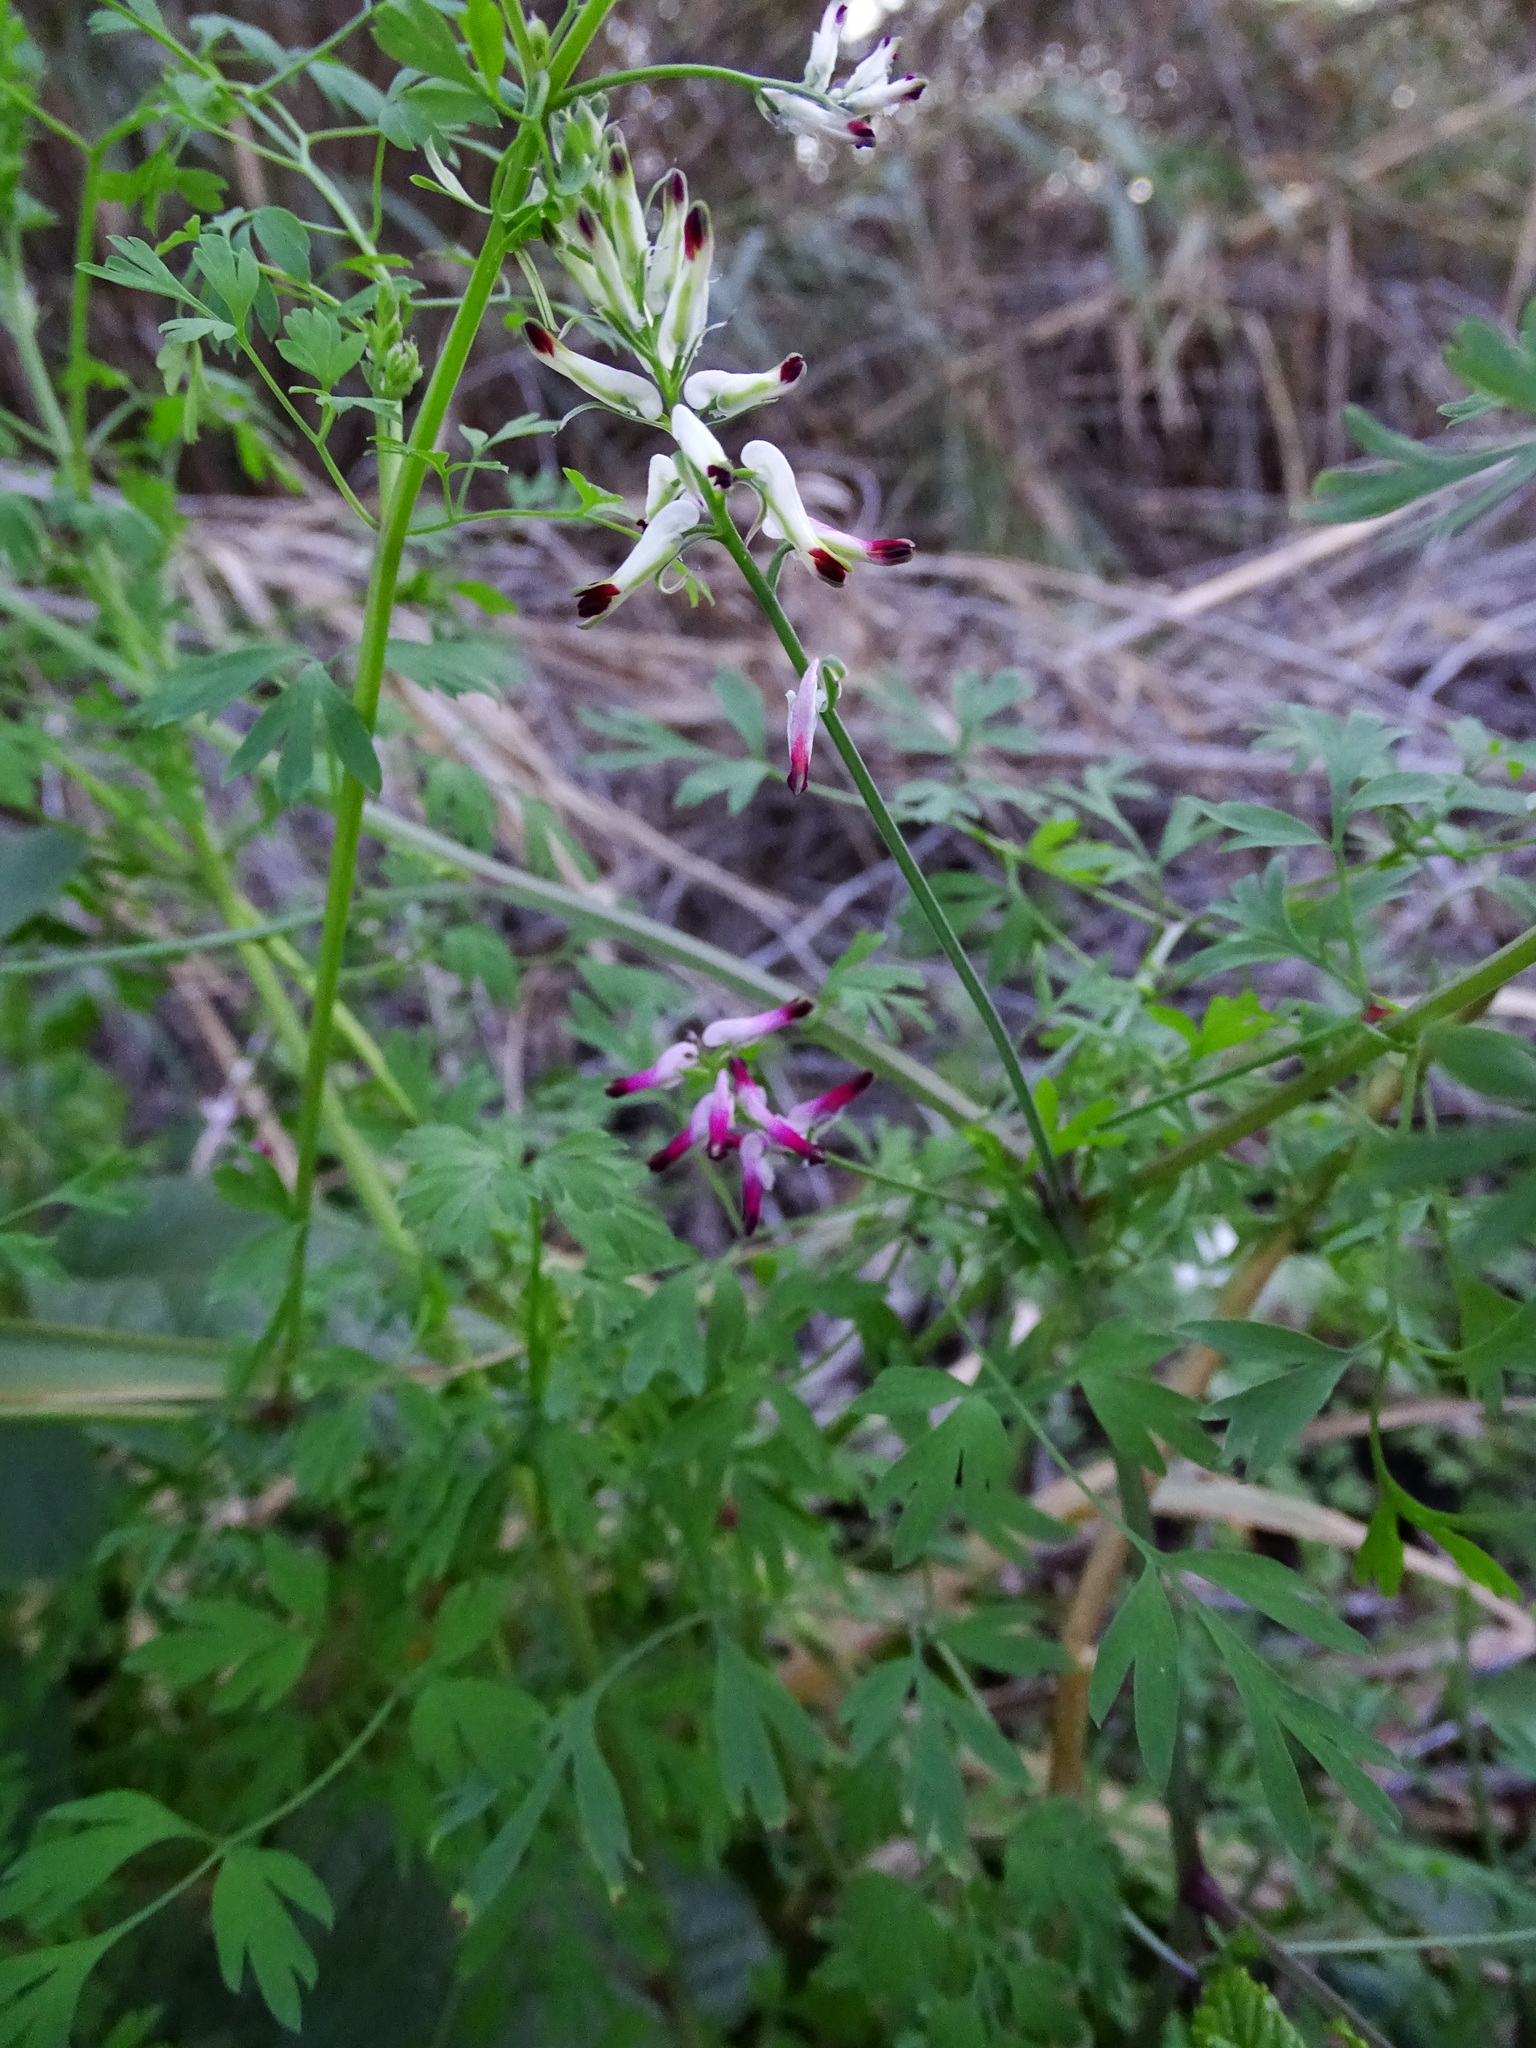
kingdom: Plantae
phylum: Tracheophyta
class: Magnoliopsida
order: Ranunculales
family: Papaveraceae
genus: Fumaria
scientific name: Fumaria muralis
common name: Common ramping-fumitory
